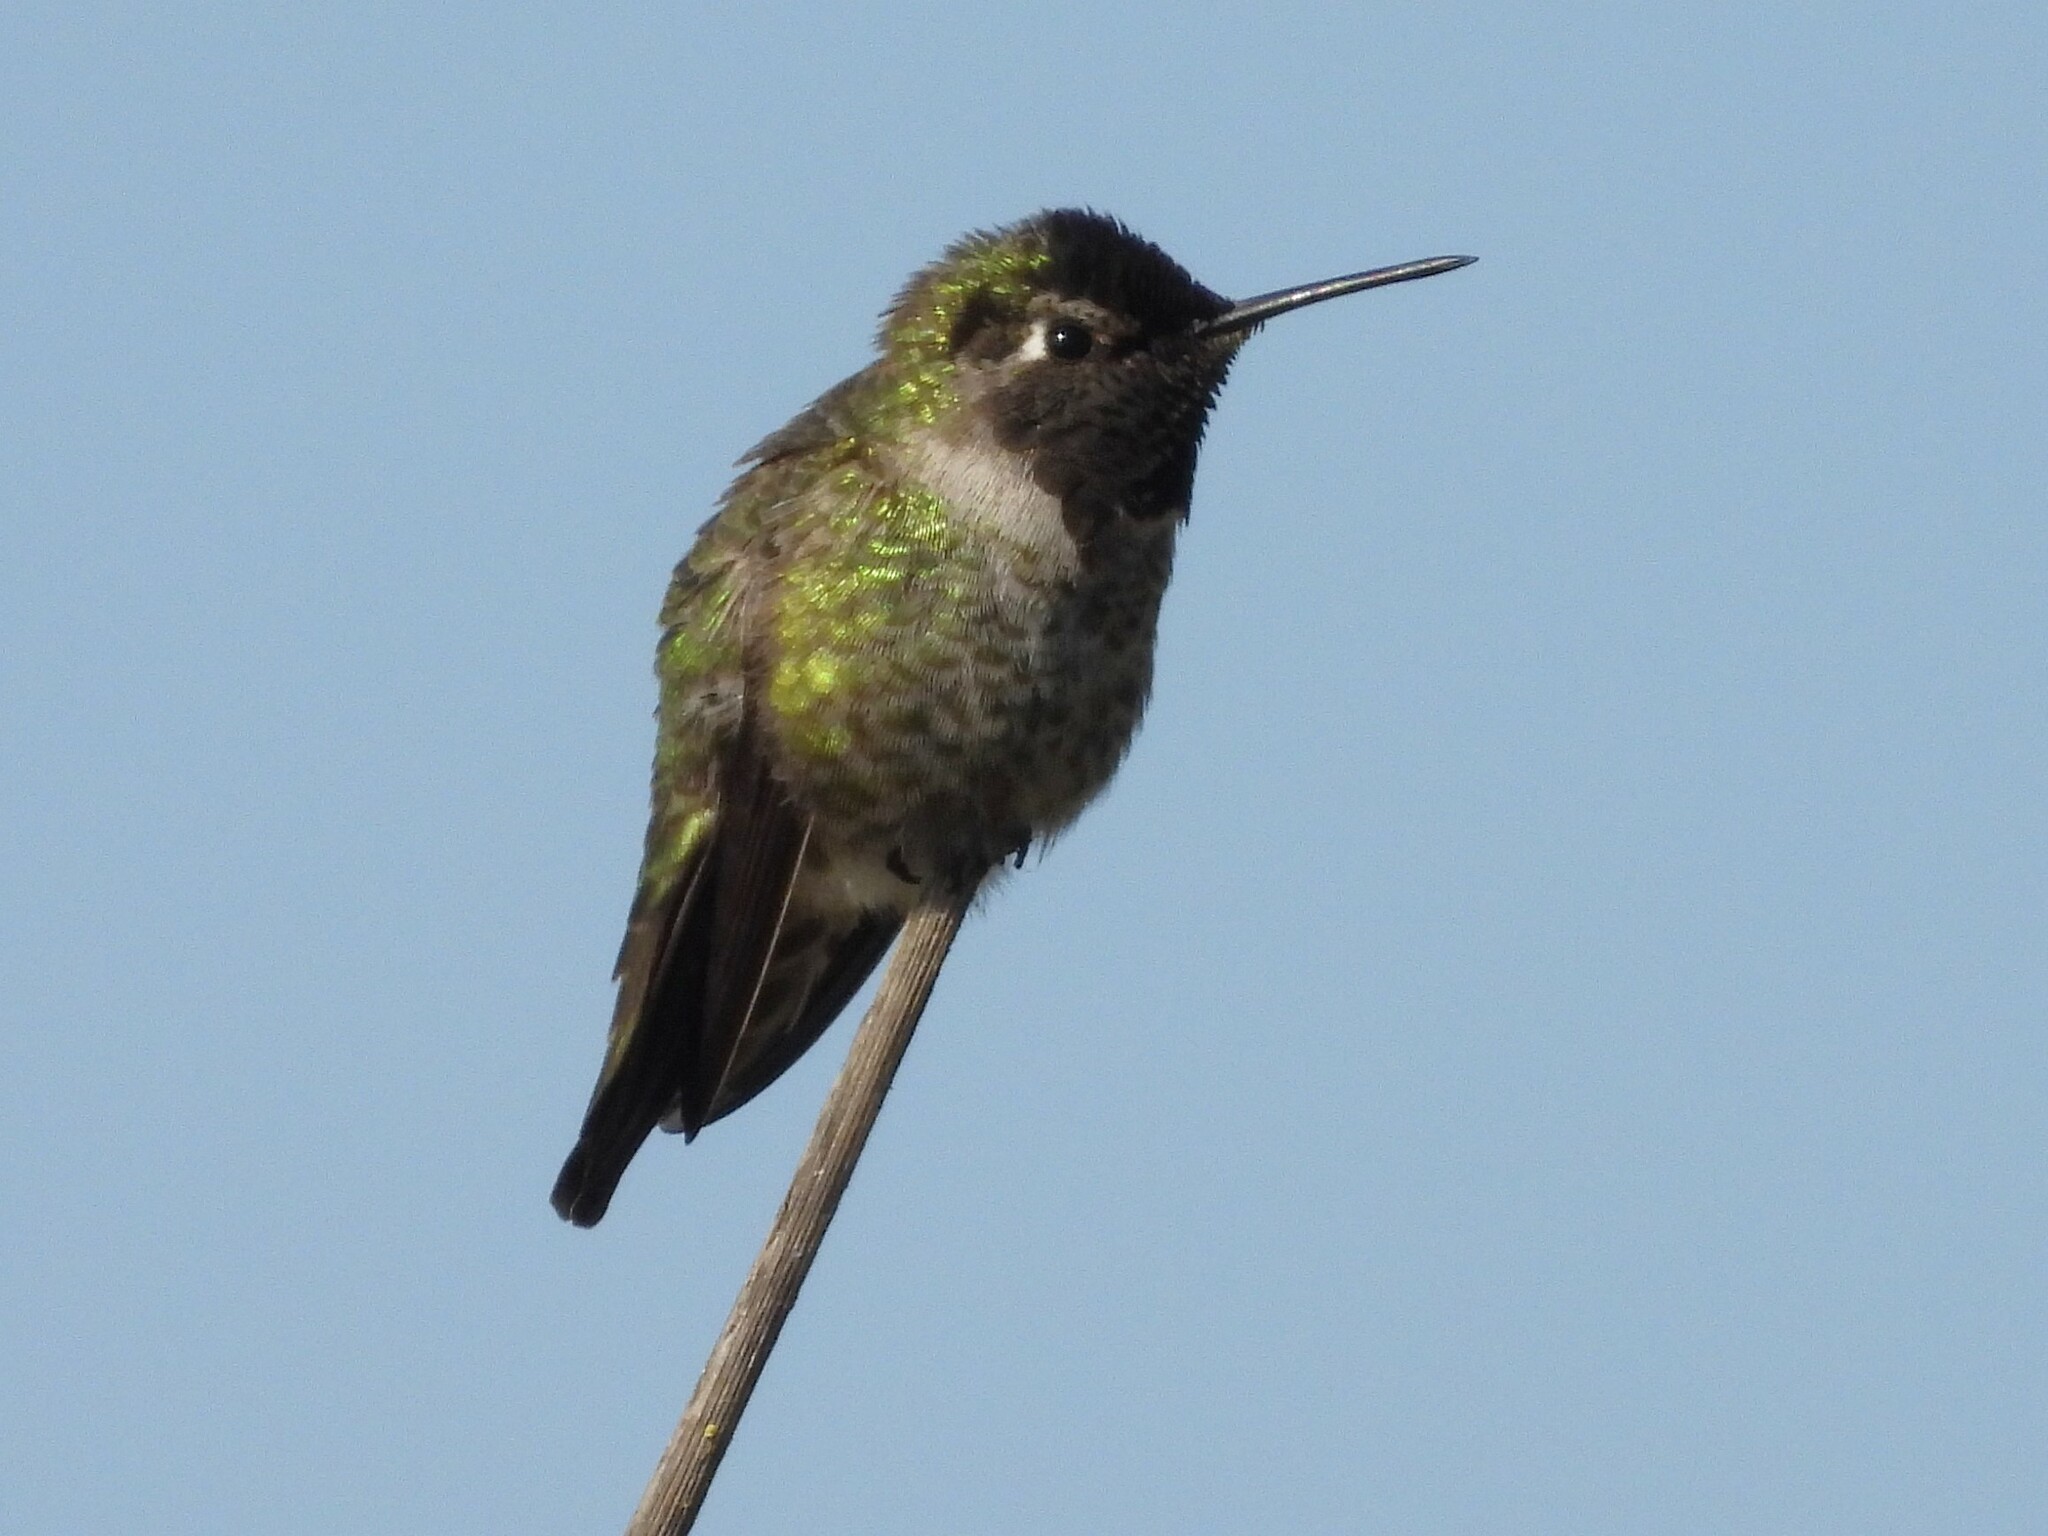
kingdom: Animalia
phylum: Chordata
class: Aves
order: Apodiformes
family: Trochilidae
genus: Calypte
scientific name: Calypte anna
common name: Anna's hummingbird
